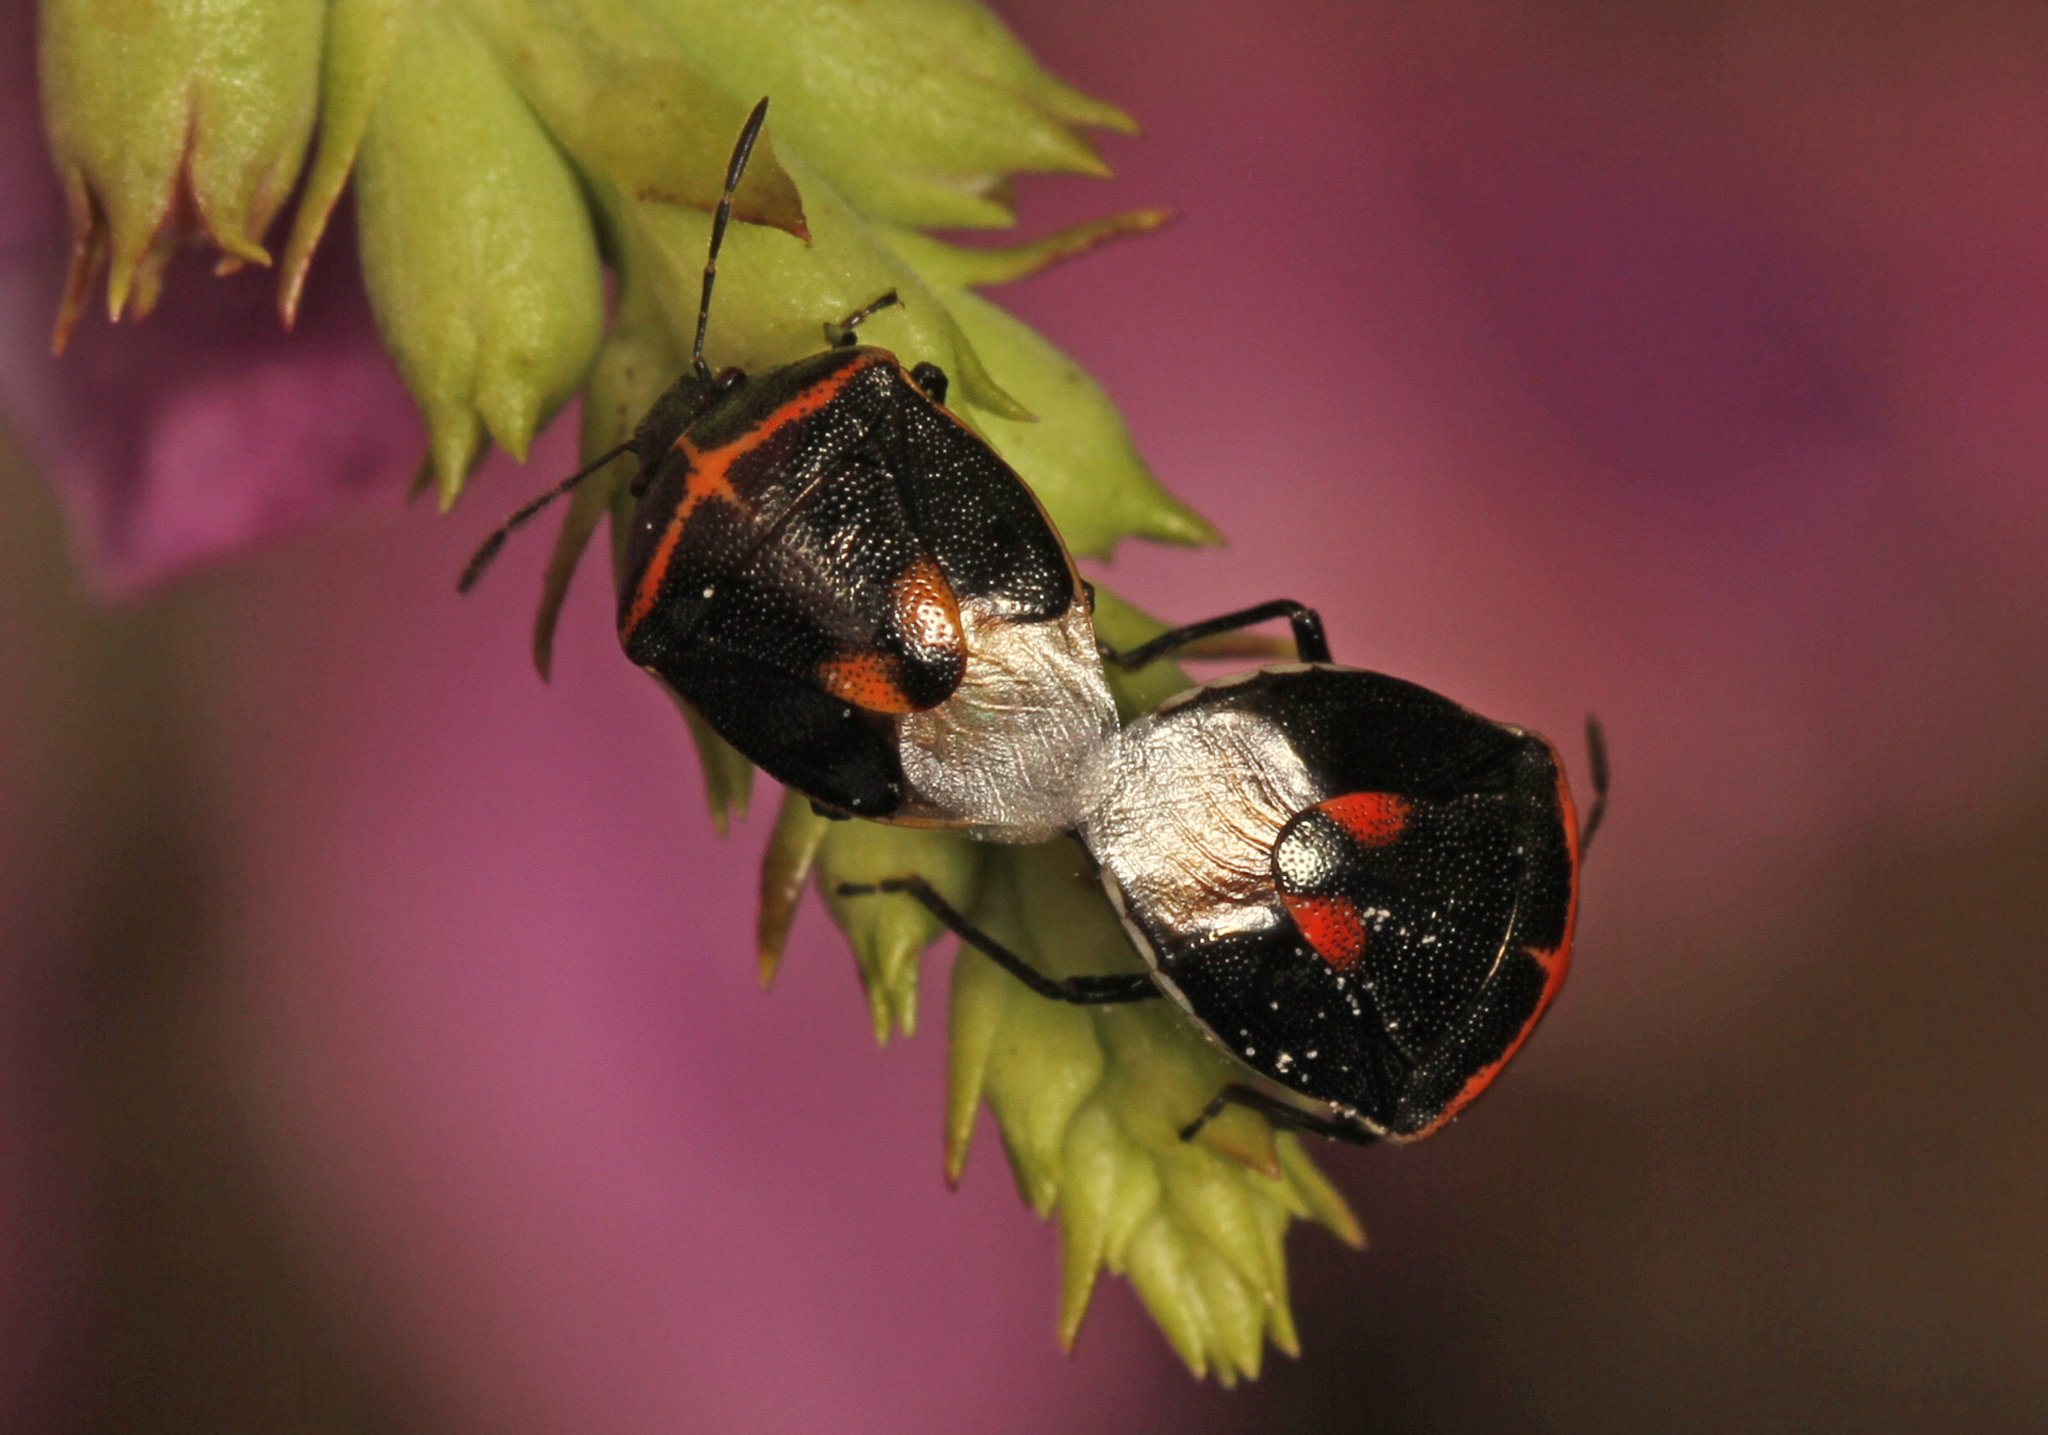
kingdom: Animalia
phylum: Arthropoda
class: Insecta
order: Hemiptera
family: Pentatomidae
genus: Cosmopepla
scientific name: Cosmopepla lintneriana
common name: Twice-stabbed stink bug
